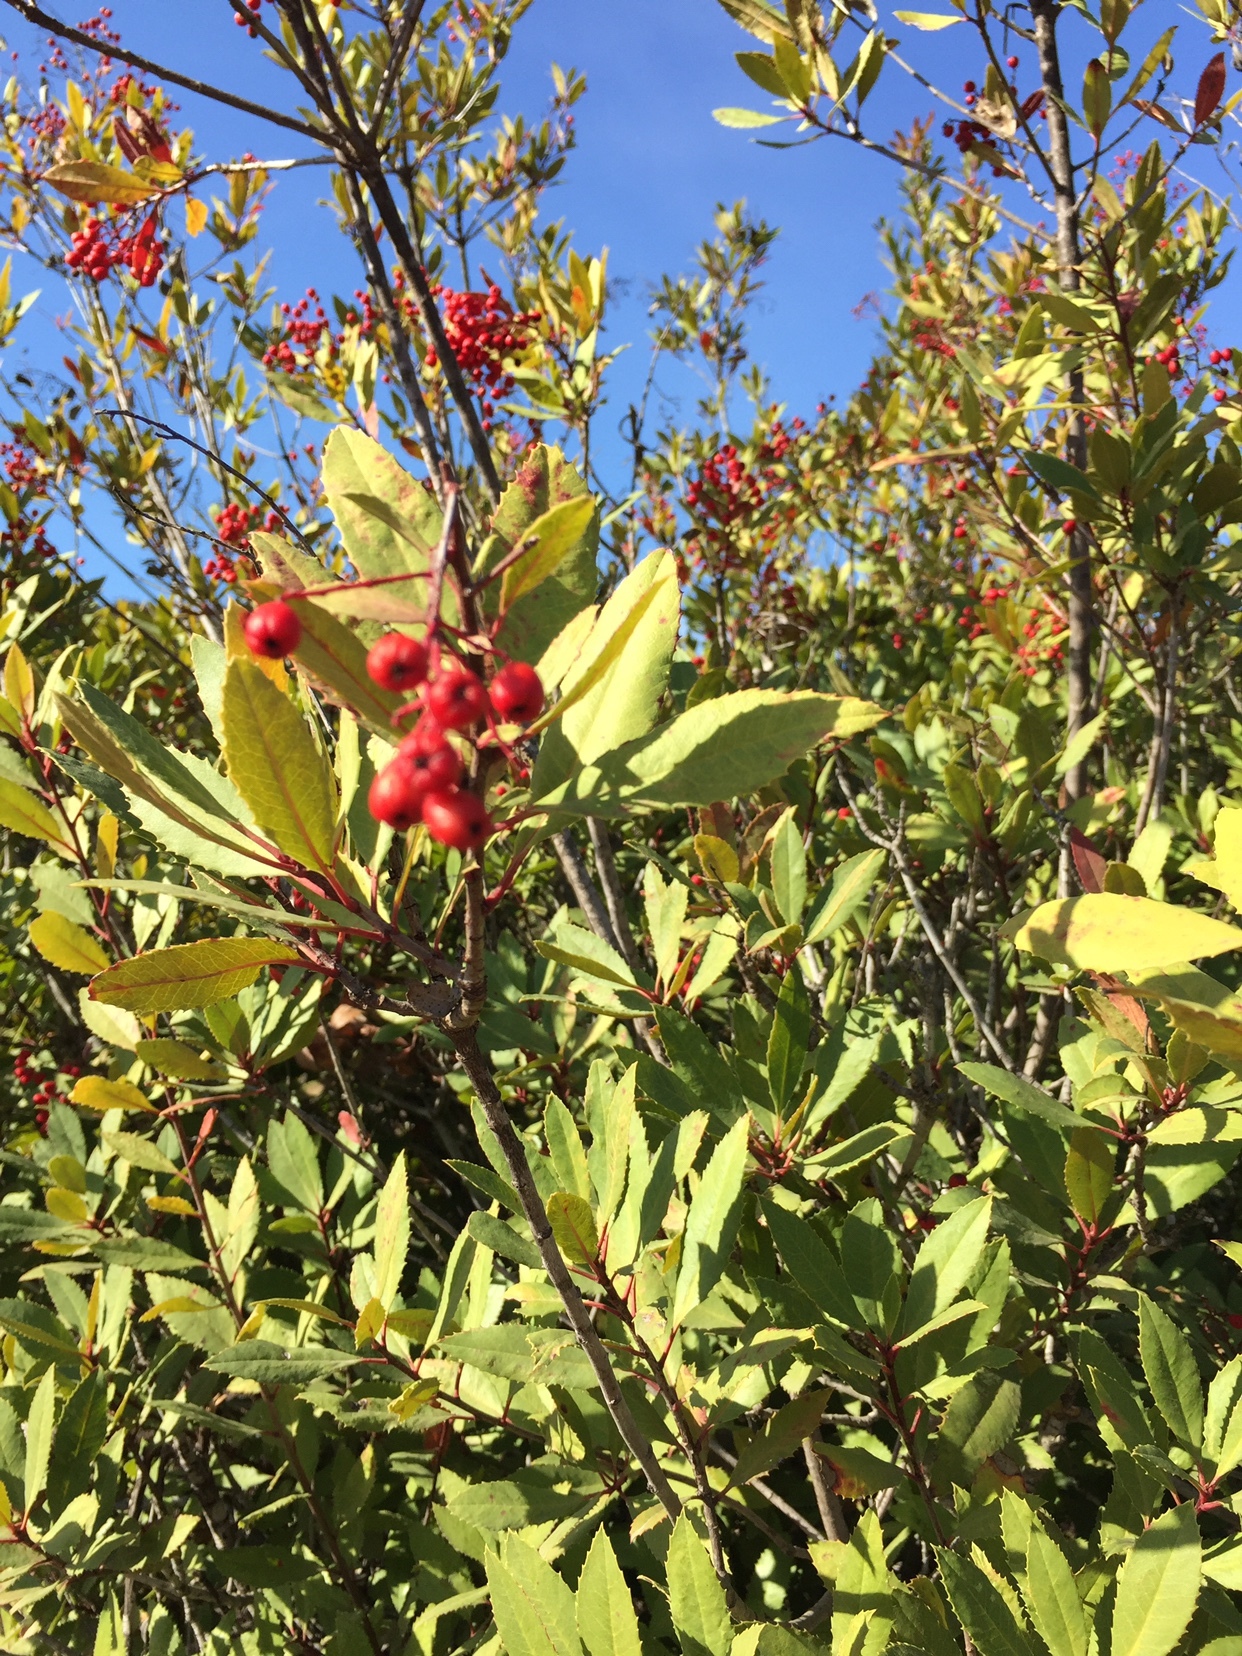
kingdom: Plantae
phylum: Tracheophyta
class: Magnoliopsida
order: Rosales
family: Rosaceae
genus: Heteromeles
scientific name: Heteromeles arbutifolia
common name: California-holly
